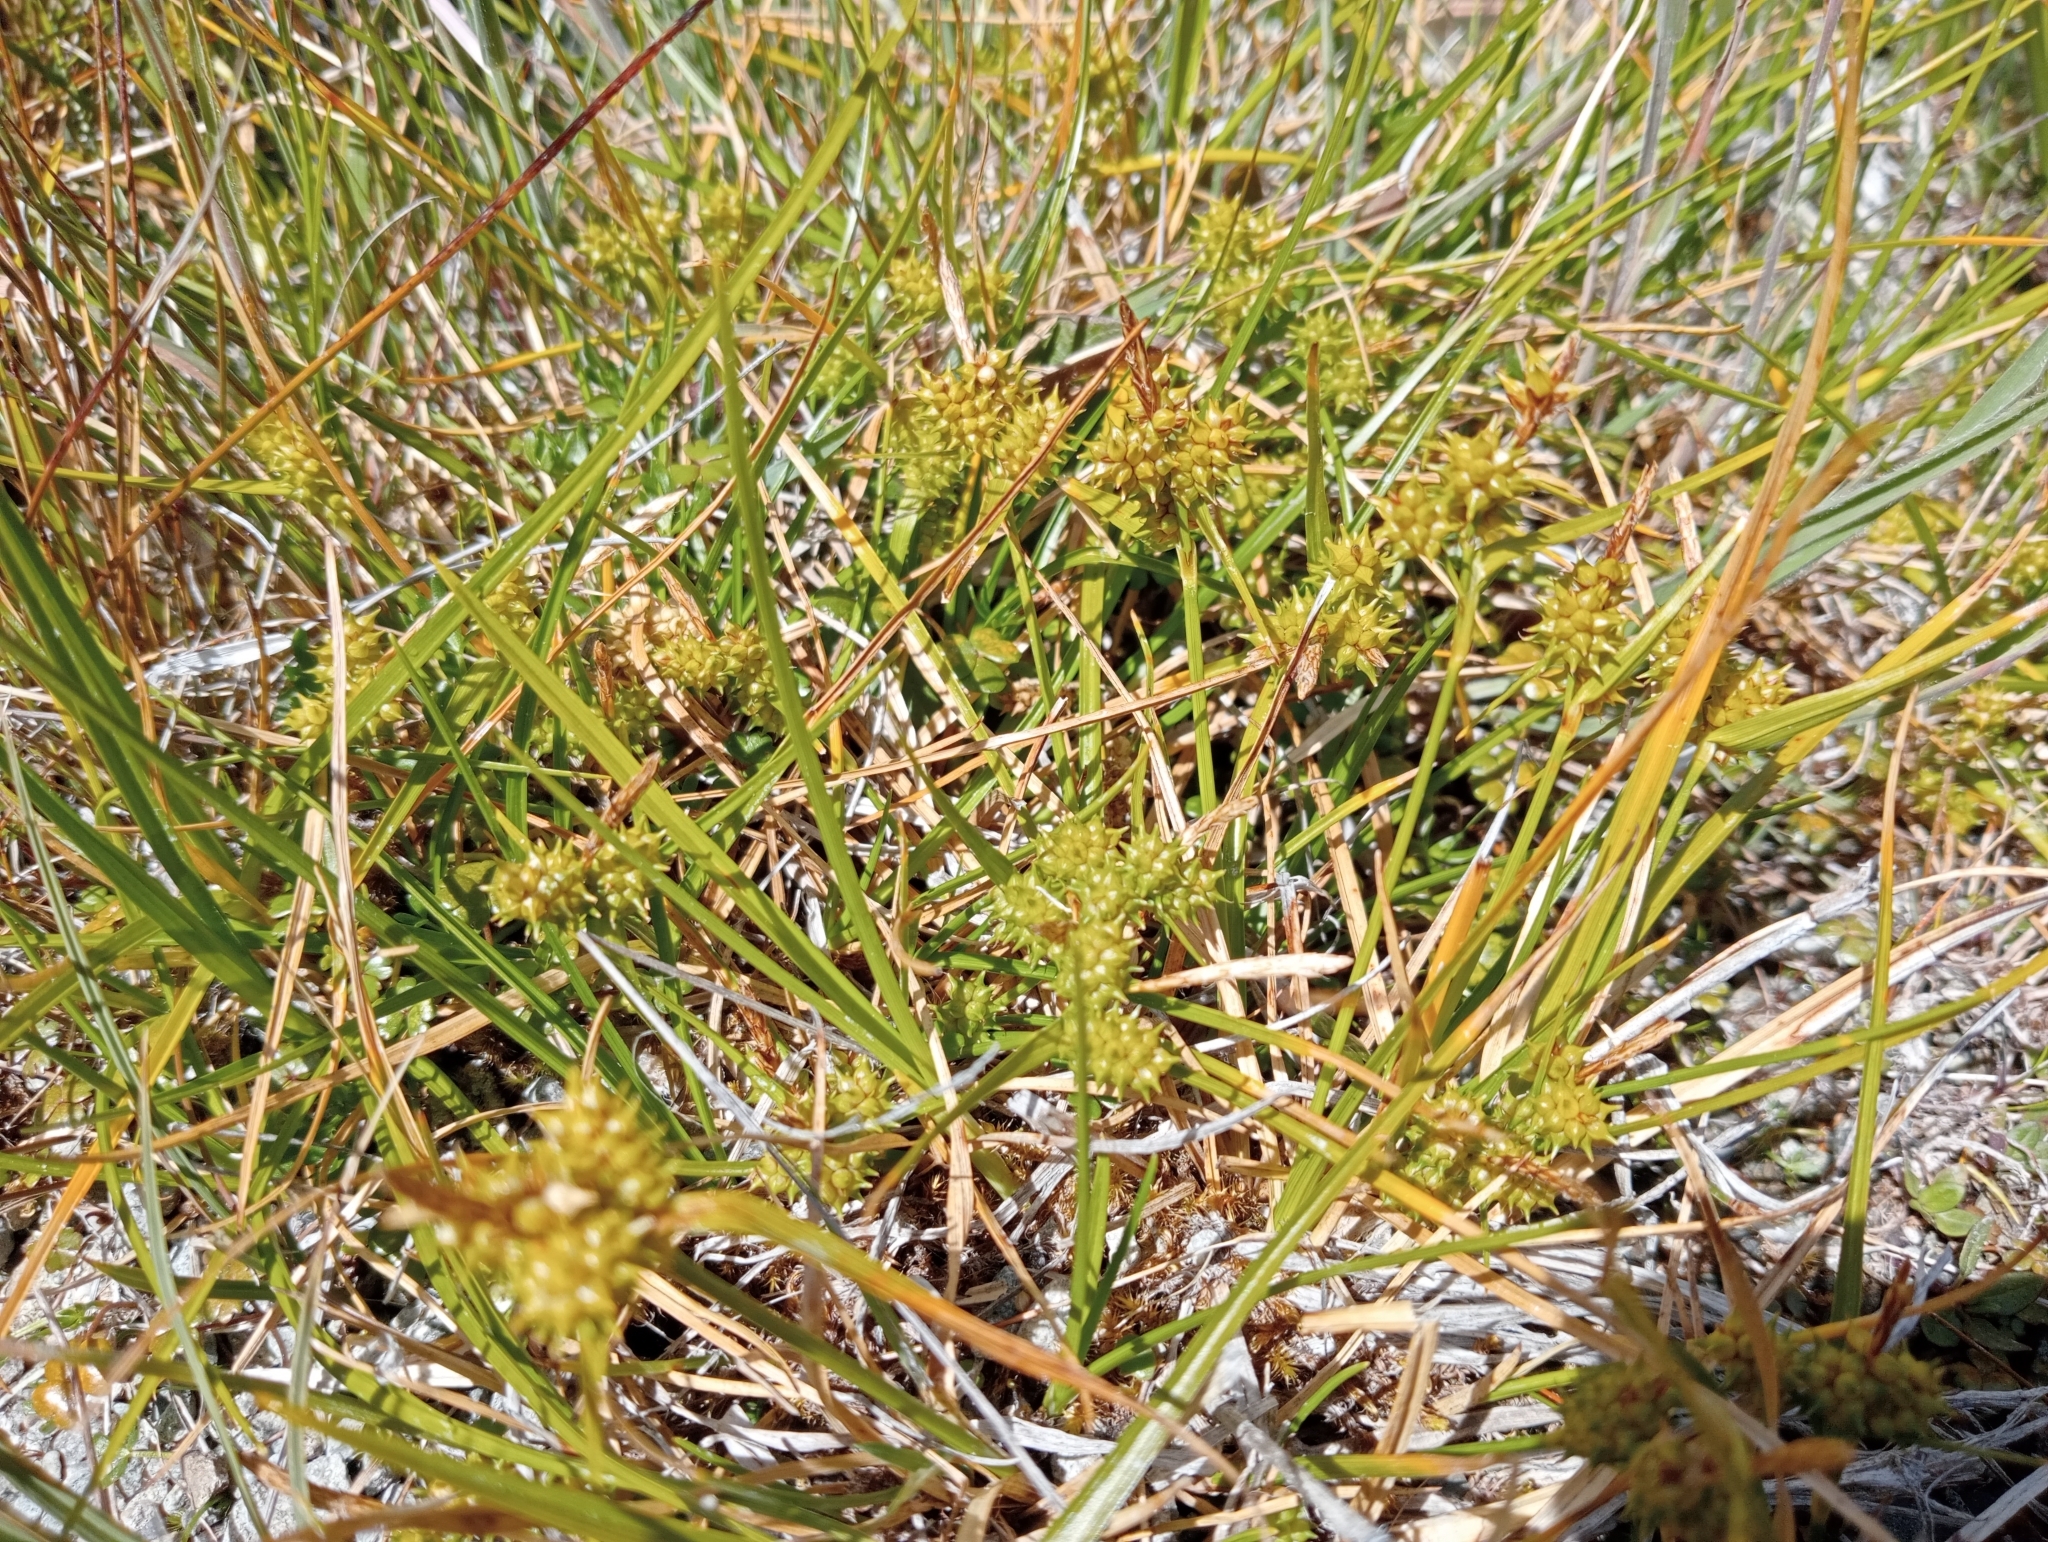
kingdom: Plantae
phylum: Tracheophyta
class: Liliopsida
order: Poales
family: Cyperaceae
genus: Carex
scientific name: Carex flaviformis
